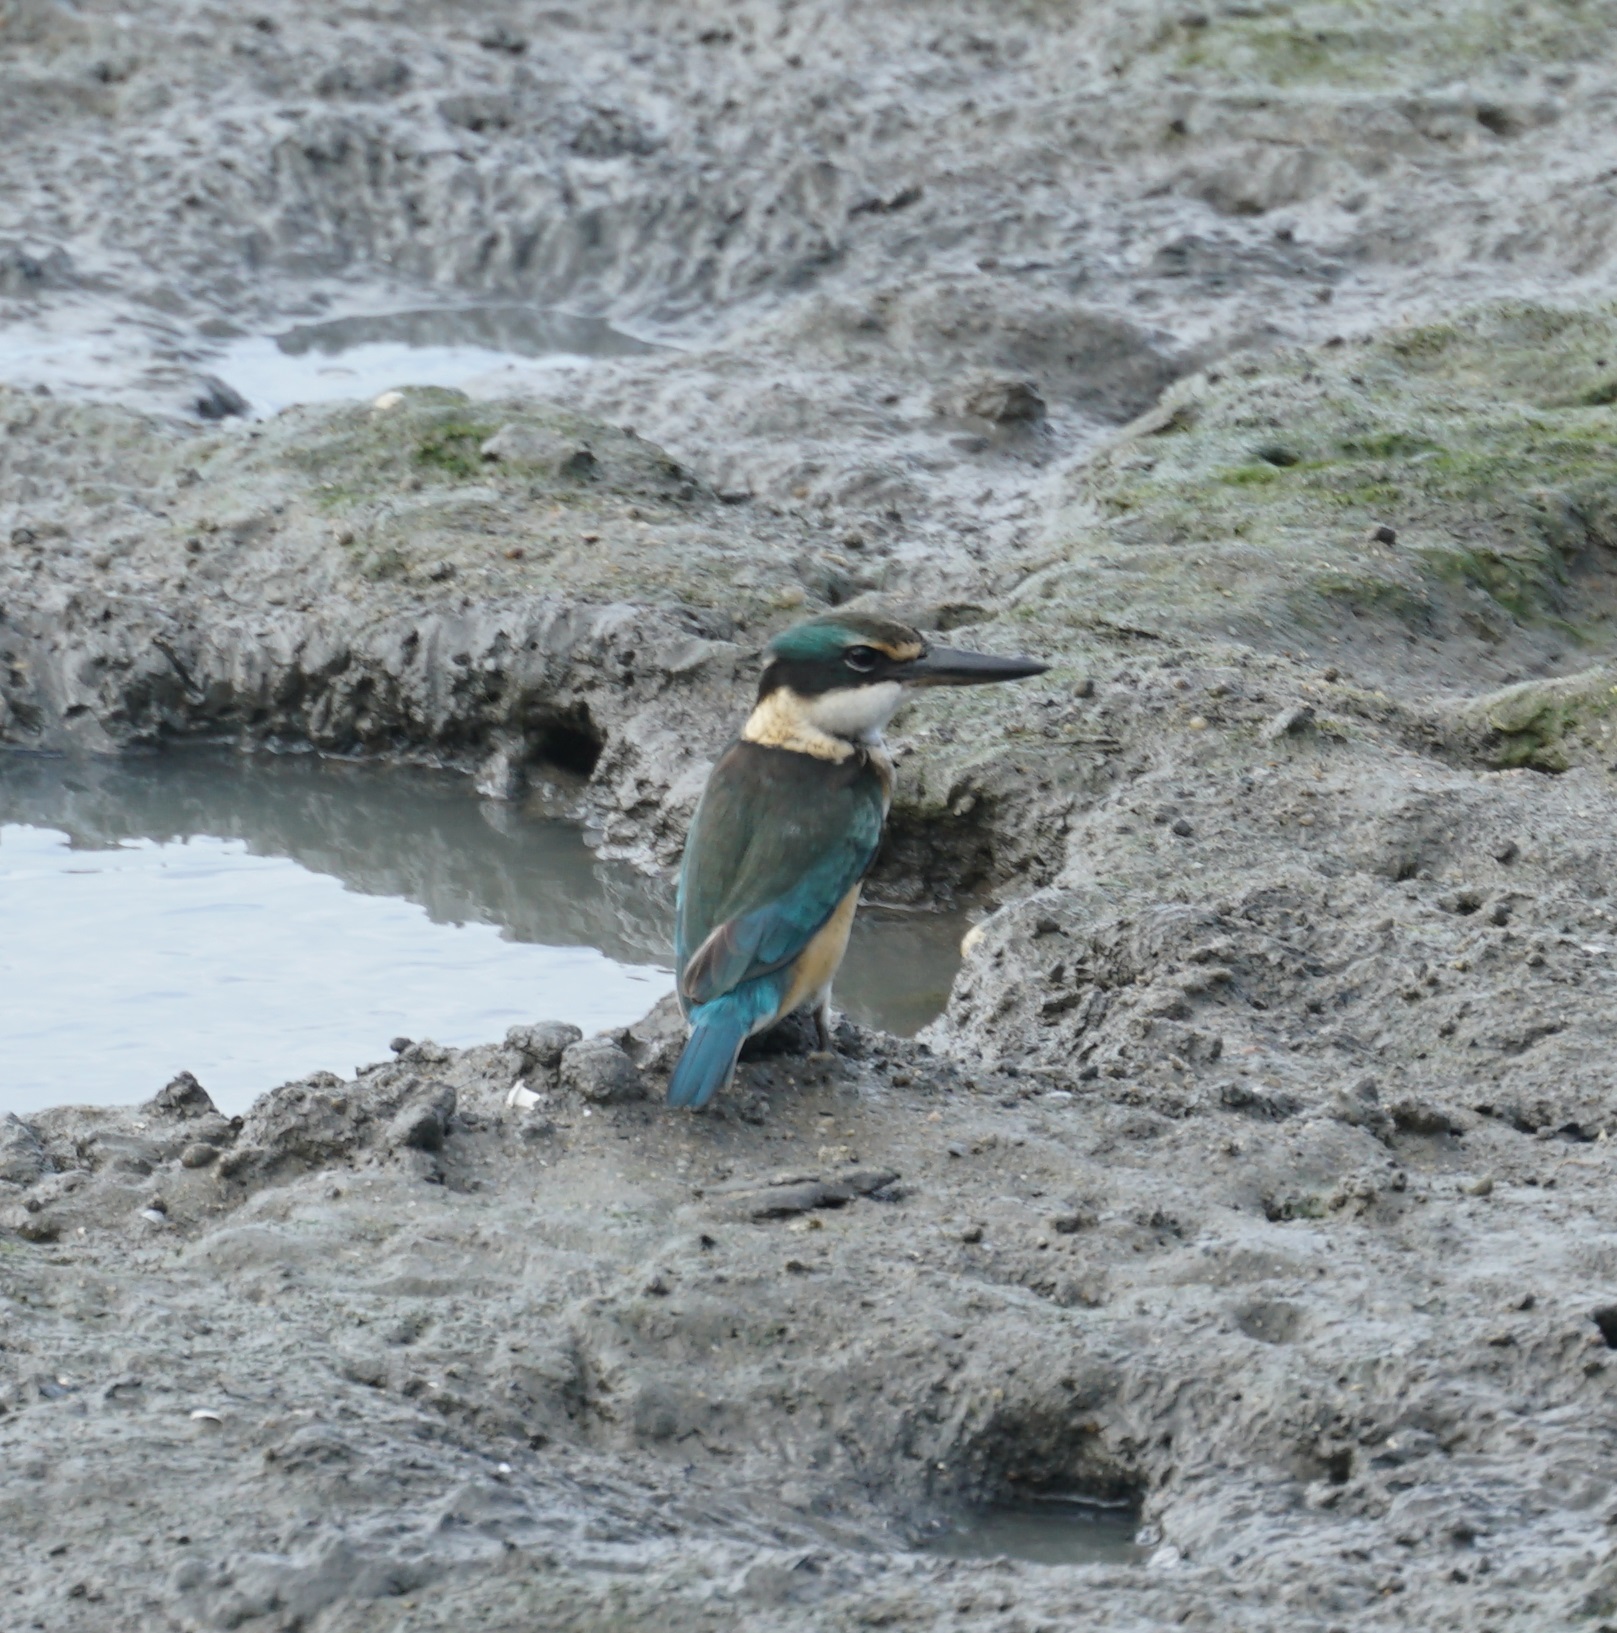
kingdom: Animalia
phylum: Chordata
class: Aves
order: Coraciiformes
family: Alcedinidae
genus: Todiramphus
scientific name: Todiramphus sanctus
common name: Sacred kingfisher
